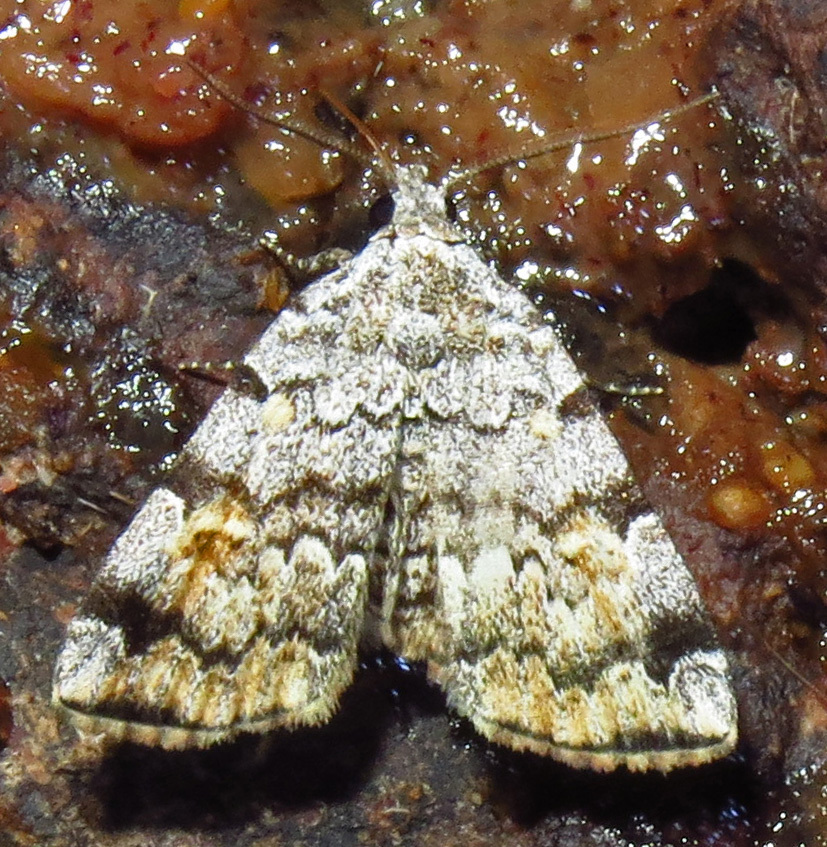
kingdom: Animalia
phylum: Arthropoda
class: Insecta
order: Lepidoptera
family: Erebidae
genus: Idia
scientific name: Idia americalis
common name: American idia moth
